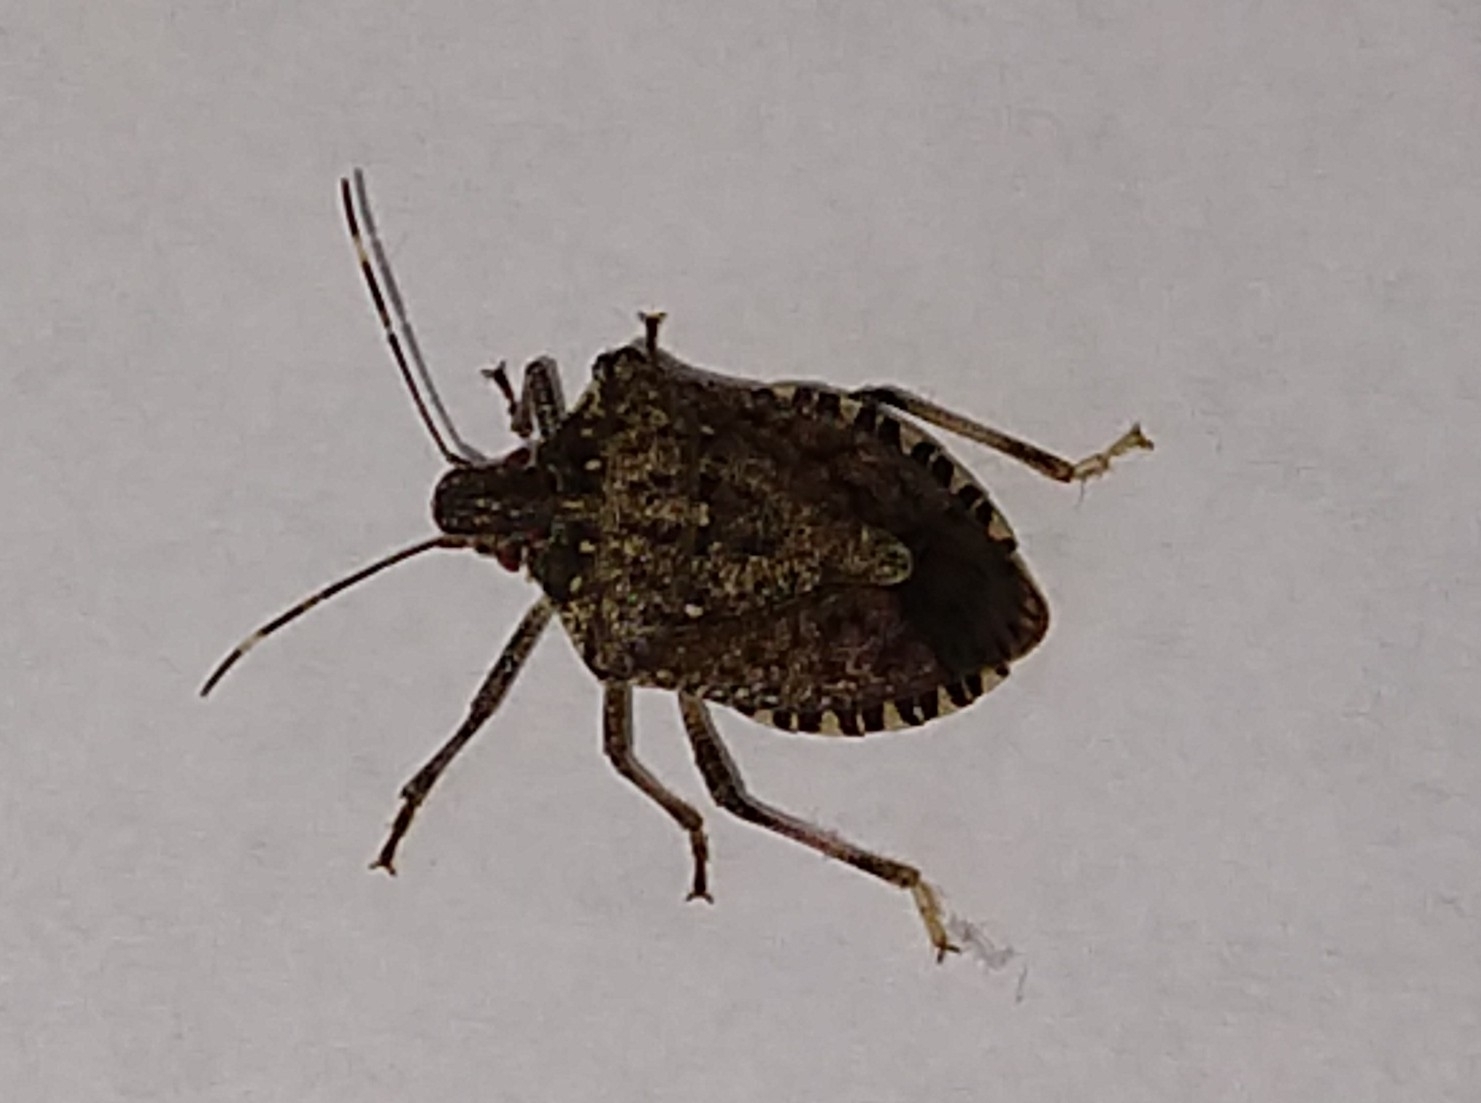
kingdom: Animalia
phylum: Arthropoda
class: Insecta
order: Hemiptera
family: Pentatomidae
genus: Halyomorpha
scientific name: Halyomorpha halys
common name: Brown marmorated stink bug
